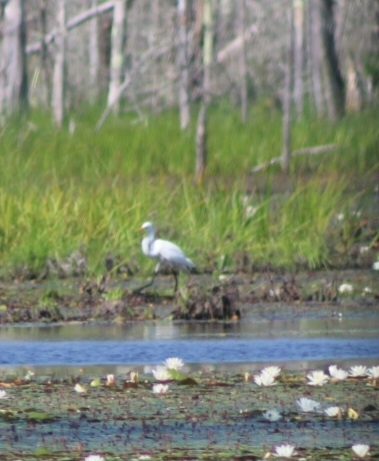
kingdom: Animalia
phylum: Chordata
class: Aves
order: Pelecaniformes
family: Ardeidae
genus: Ardea
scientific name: Ardea alba
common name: Great egret
